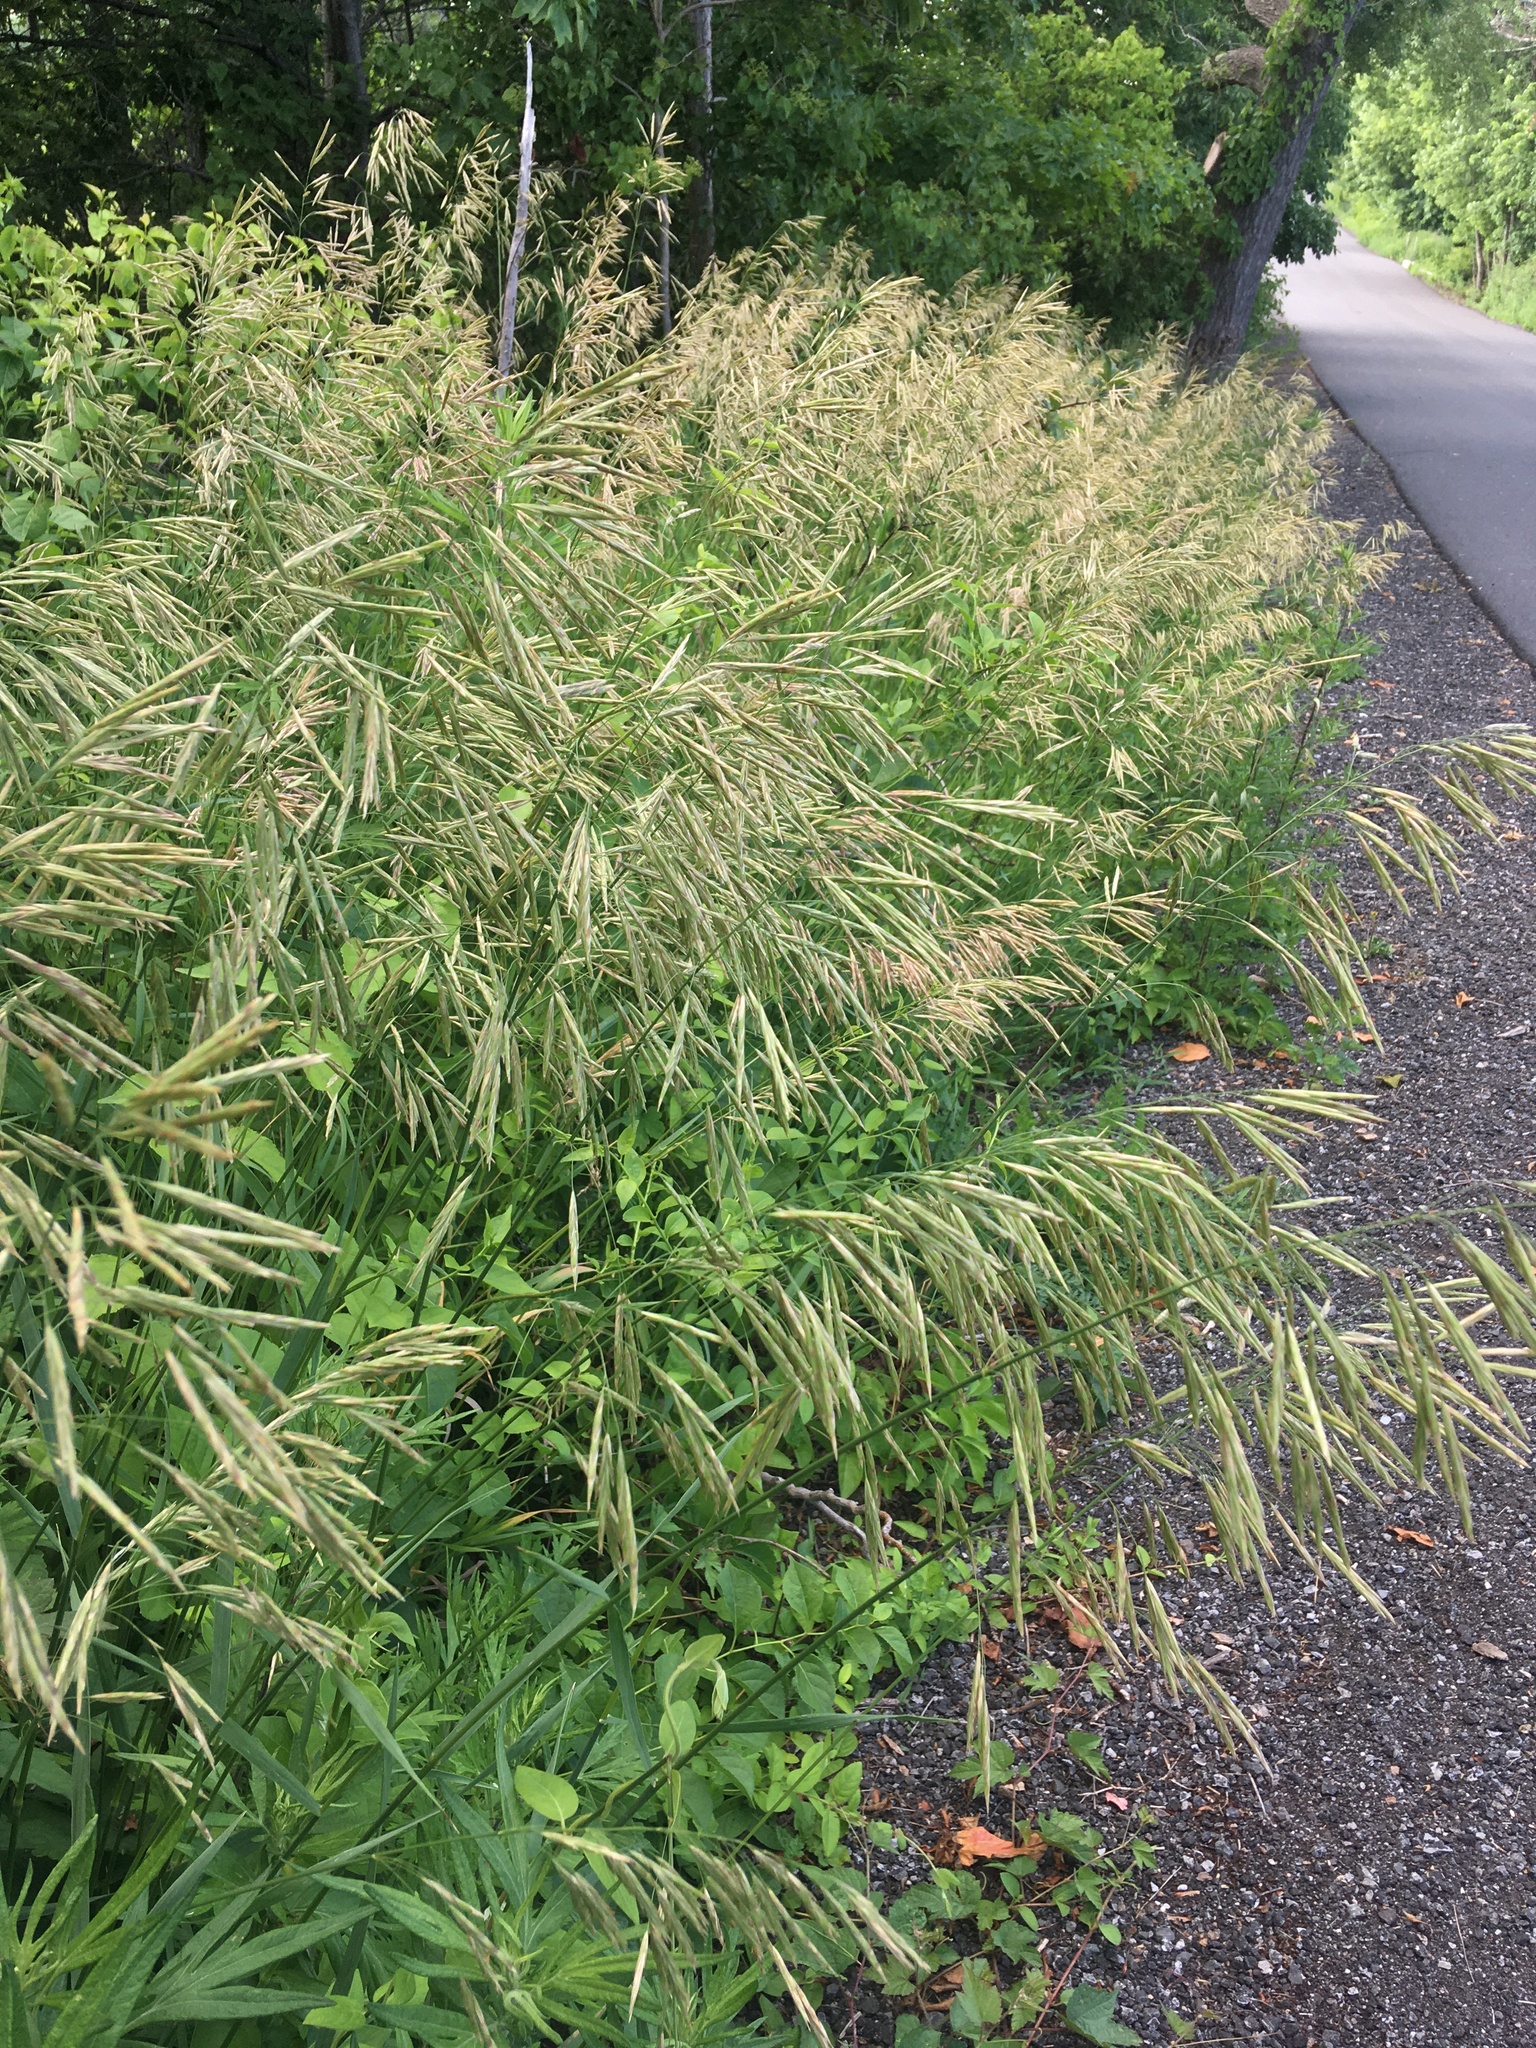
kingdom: Plantae
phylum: Tracheophyta
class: Liliopsida
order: Poales
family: Poaceae
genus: Bromus
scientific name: Bromus inermis
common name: Smooth brome
